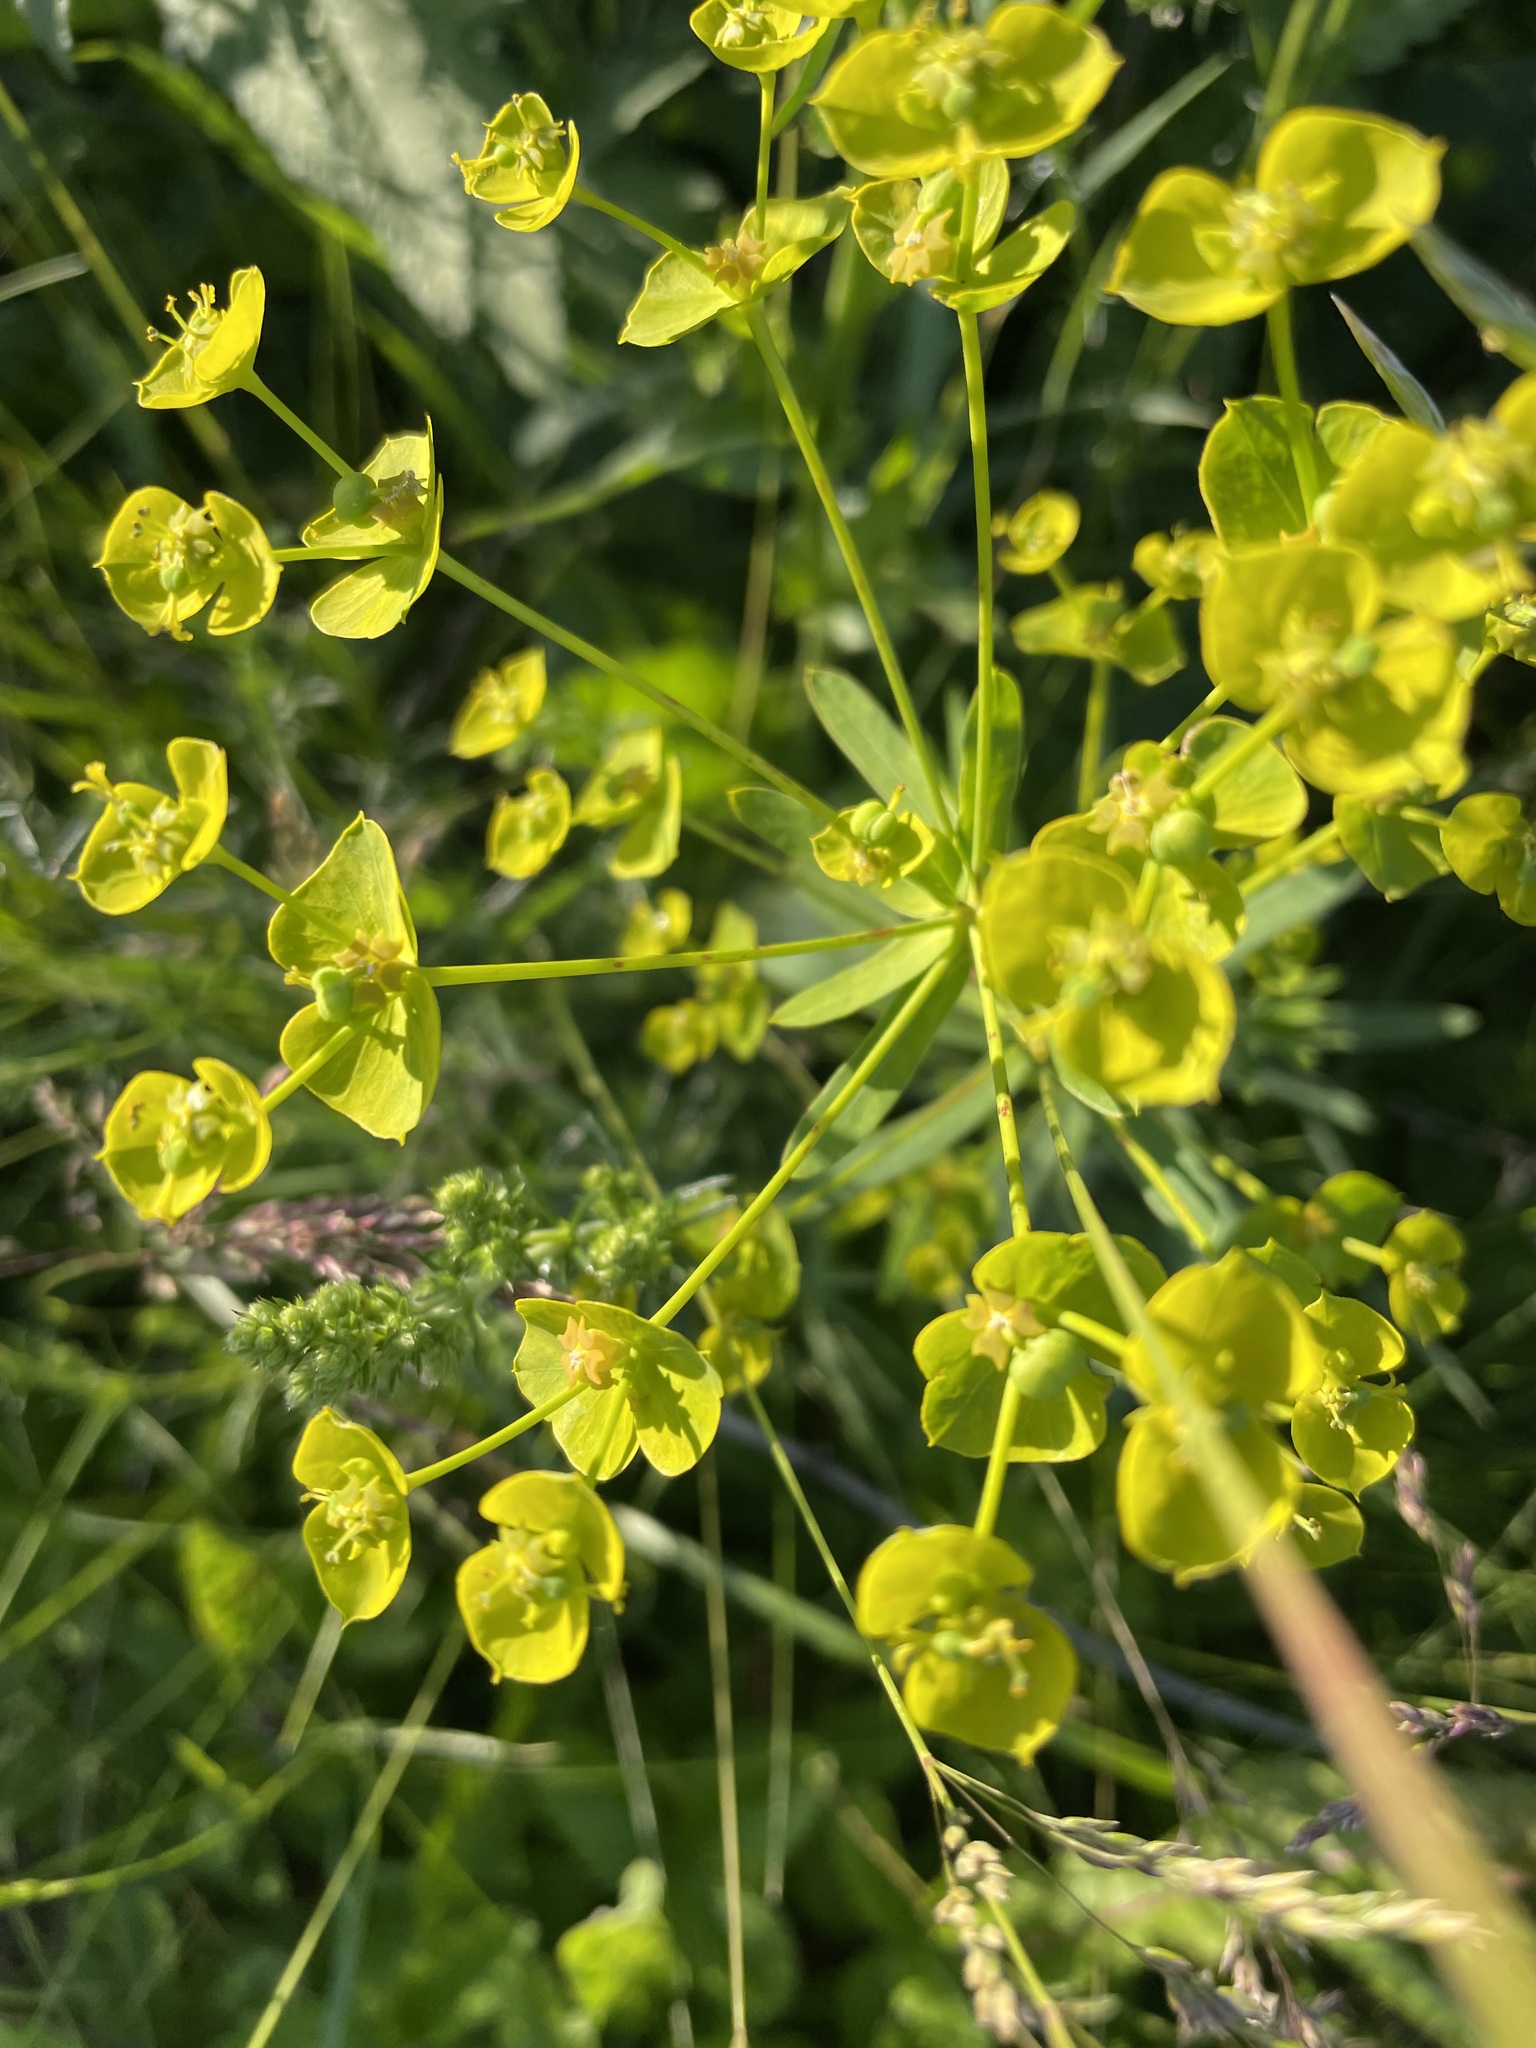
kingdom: Plantae
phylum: Tracheophyta
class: Magnoliopsida
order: Malpighiales
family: Euphorbiaceae
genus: Euphorbia
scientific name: Euphorbia virgata
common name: Leafy spurge
